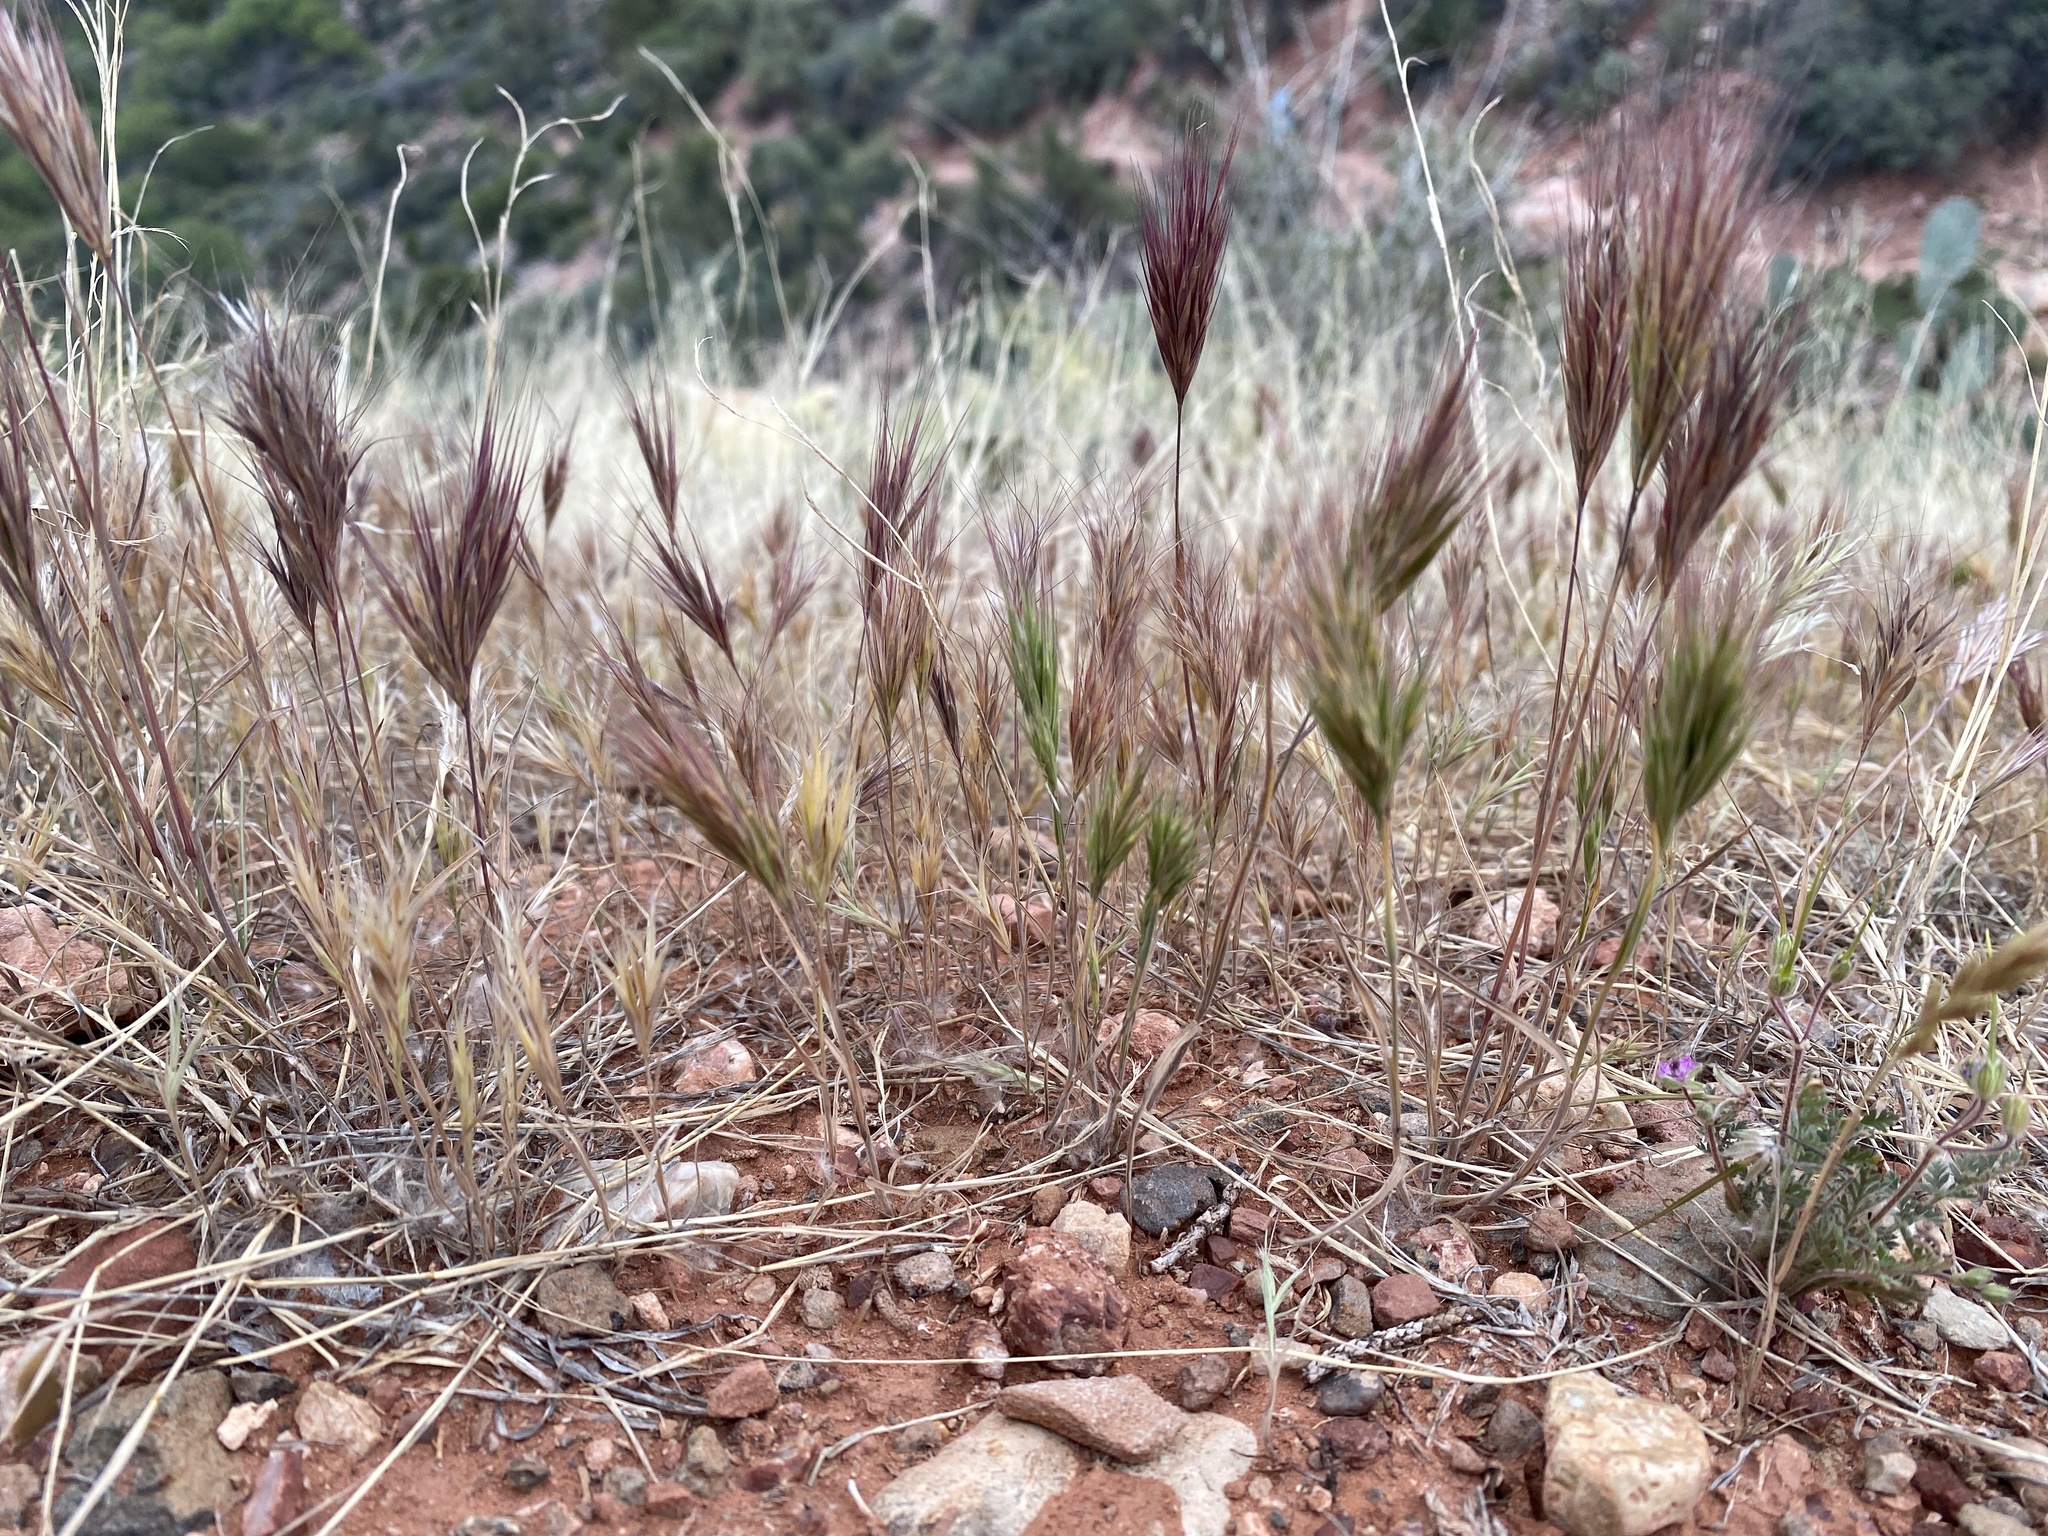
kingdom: Plantae
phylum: Tracheophyta
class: Liliopsida
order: Poales
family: Poaceae
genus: Bromus
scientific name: Bromus rubens
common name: Red brome
